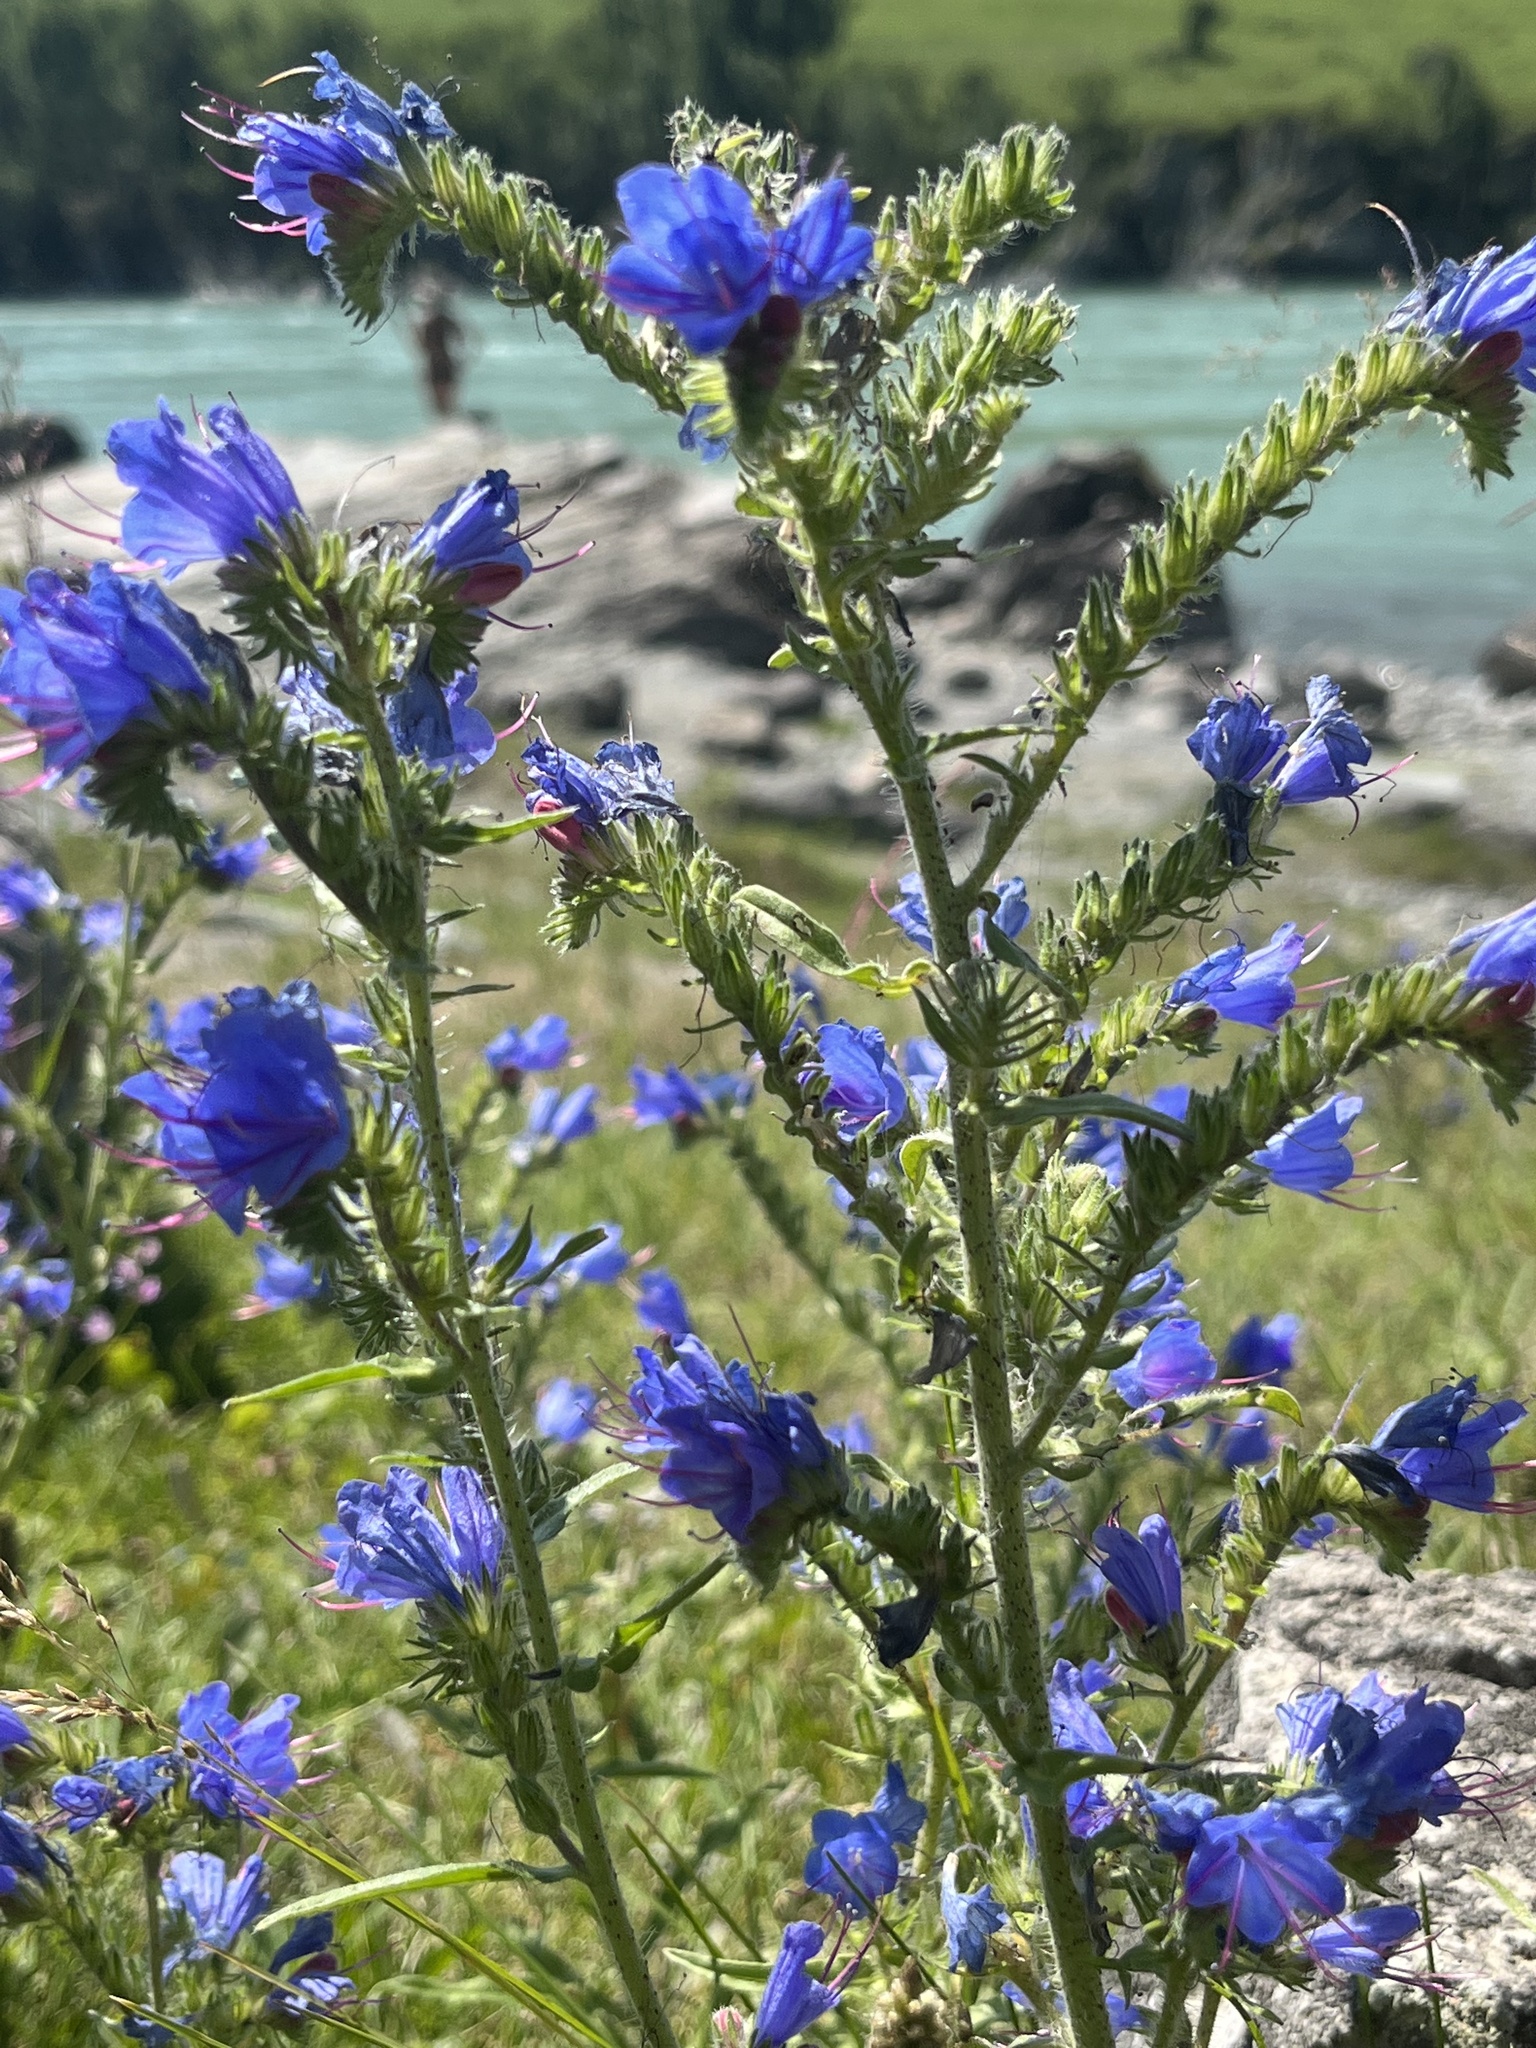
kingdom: Plantae
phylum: Tracheophyta
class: Magnoliopsida
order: Boraginales
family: Boraginaceae
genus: Echium
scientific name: Echium vulgare
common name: Common viper's bugloss
